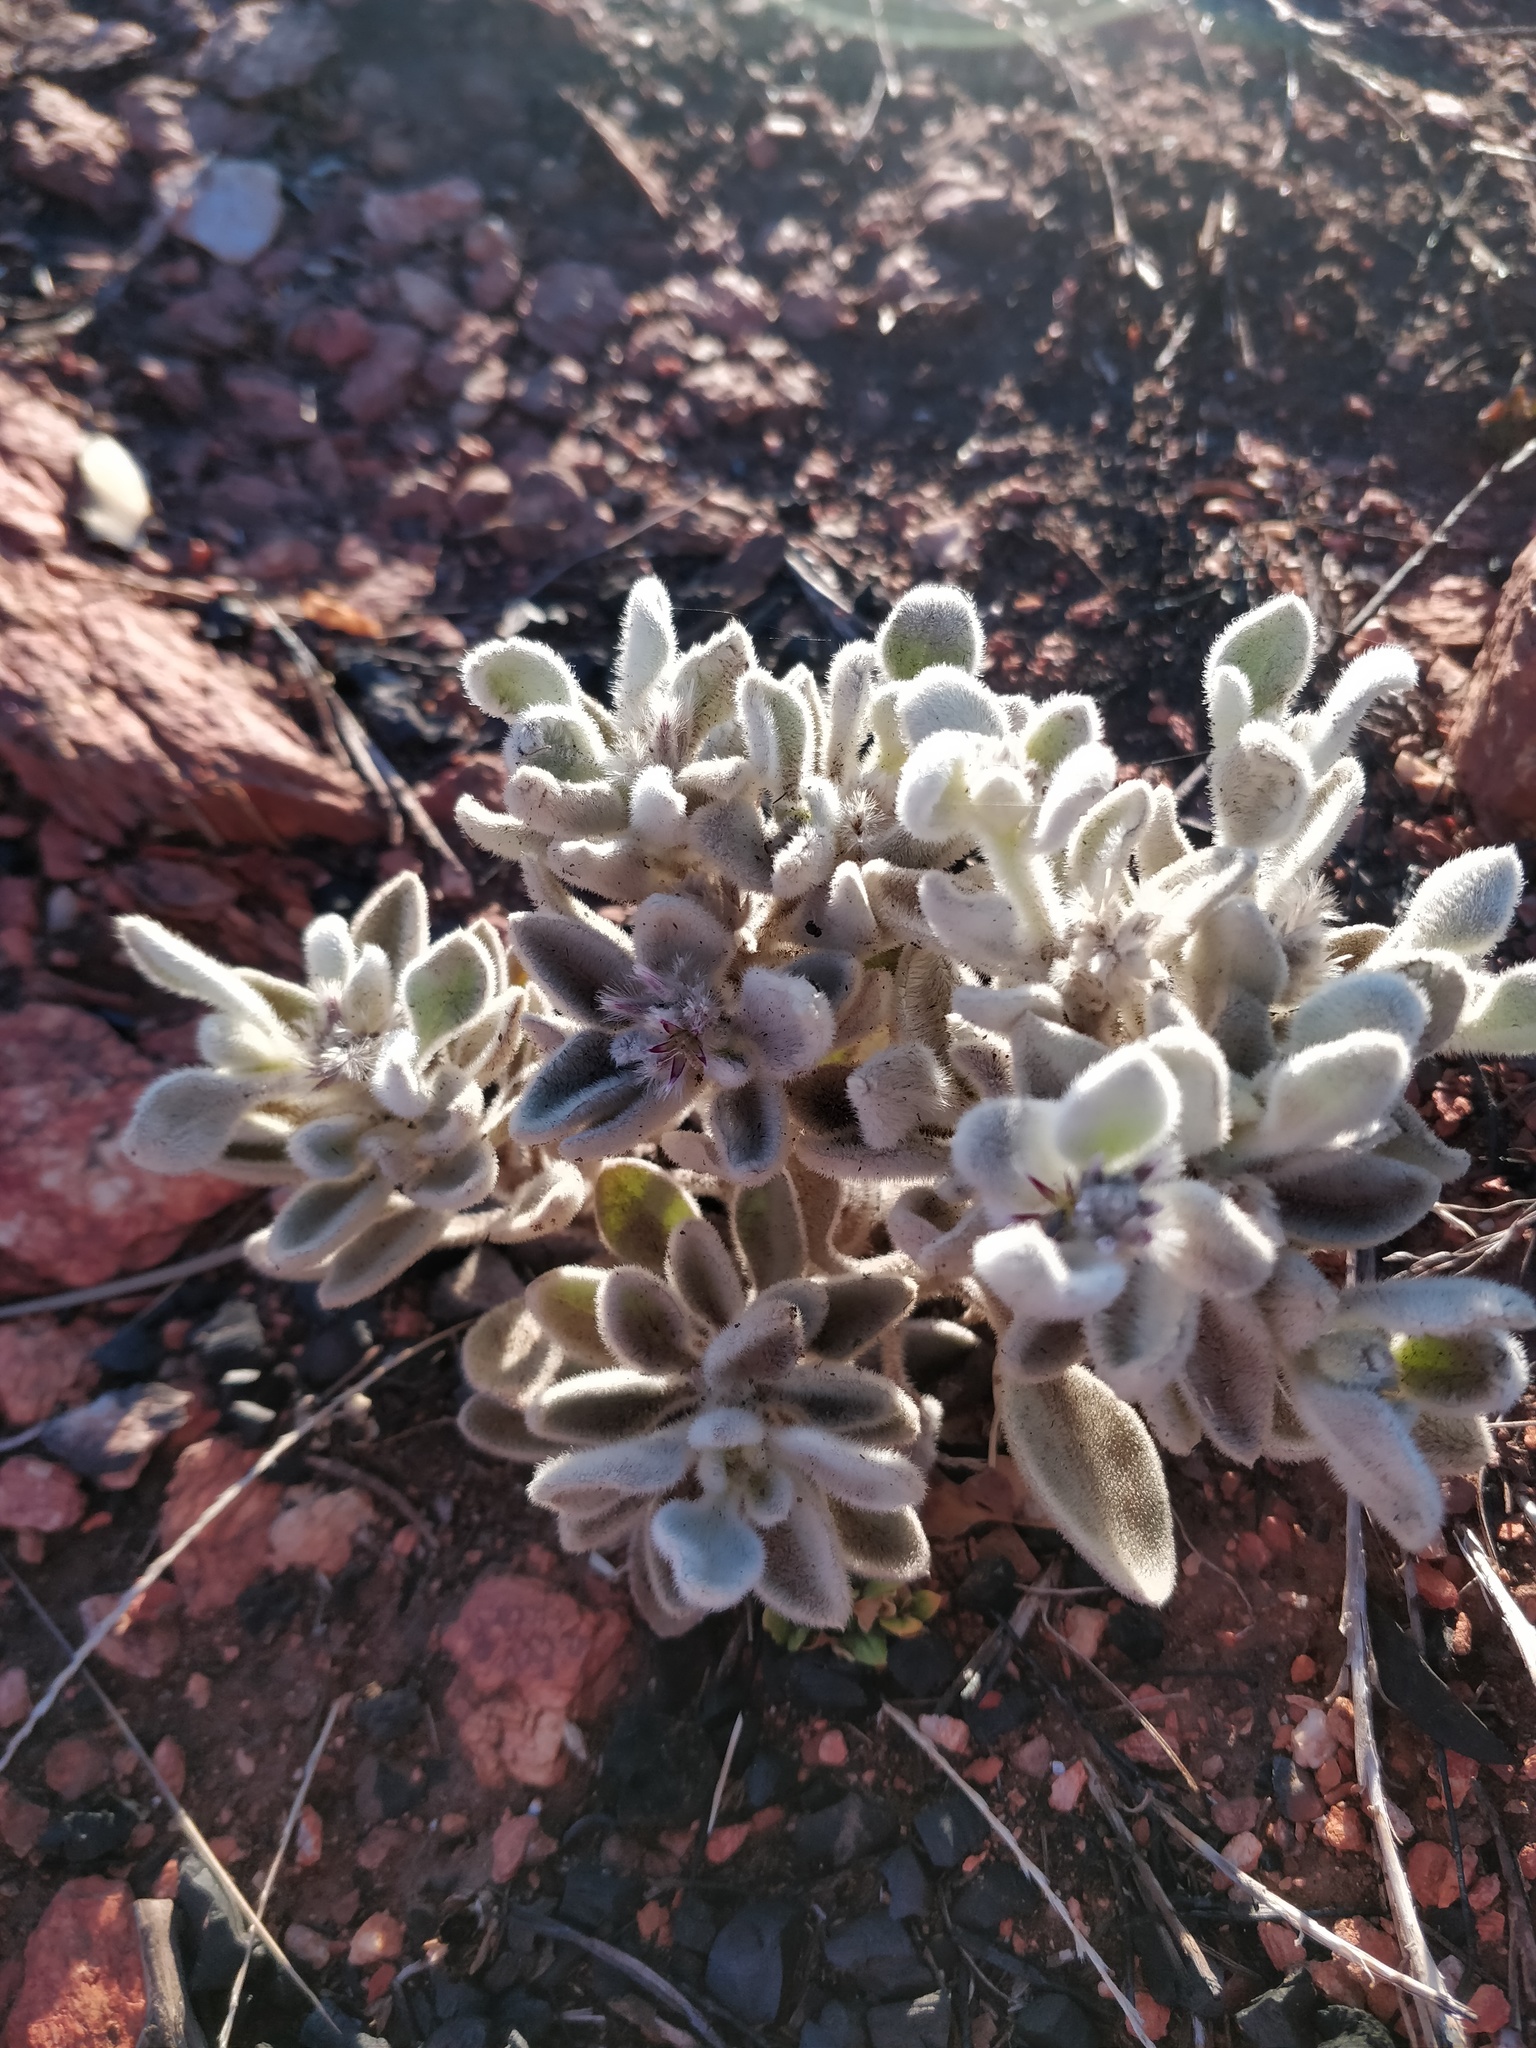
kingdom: Plantae
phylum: Tracheophyta
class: Magnoliopsida
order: Caryophyllales
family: Amaranthaceae
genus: Ptilotus
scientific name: Ptilotus incanus
